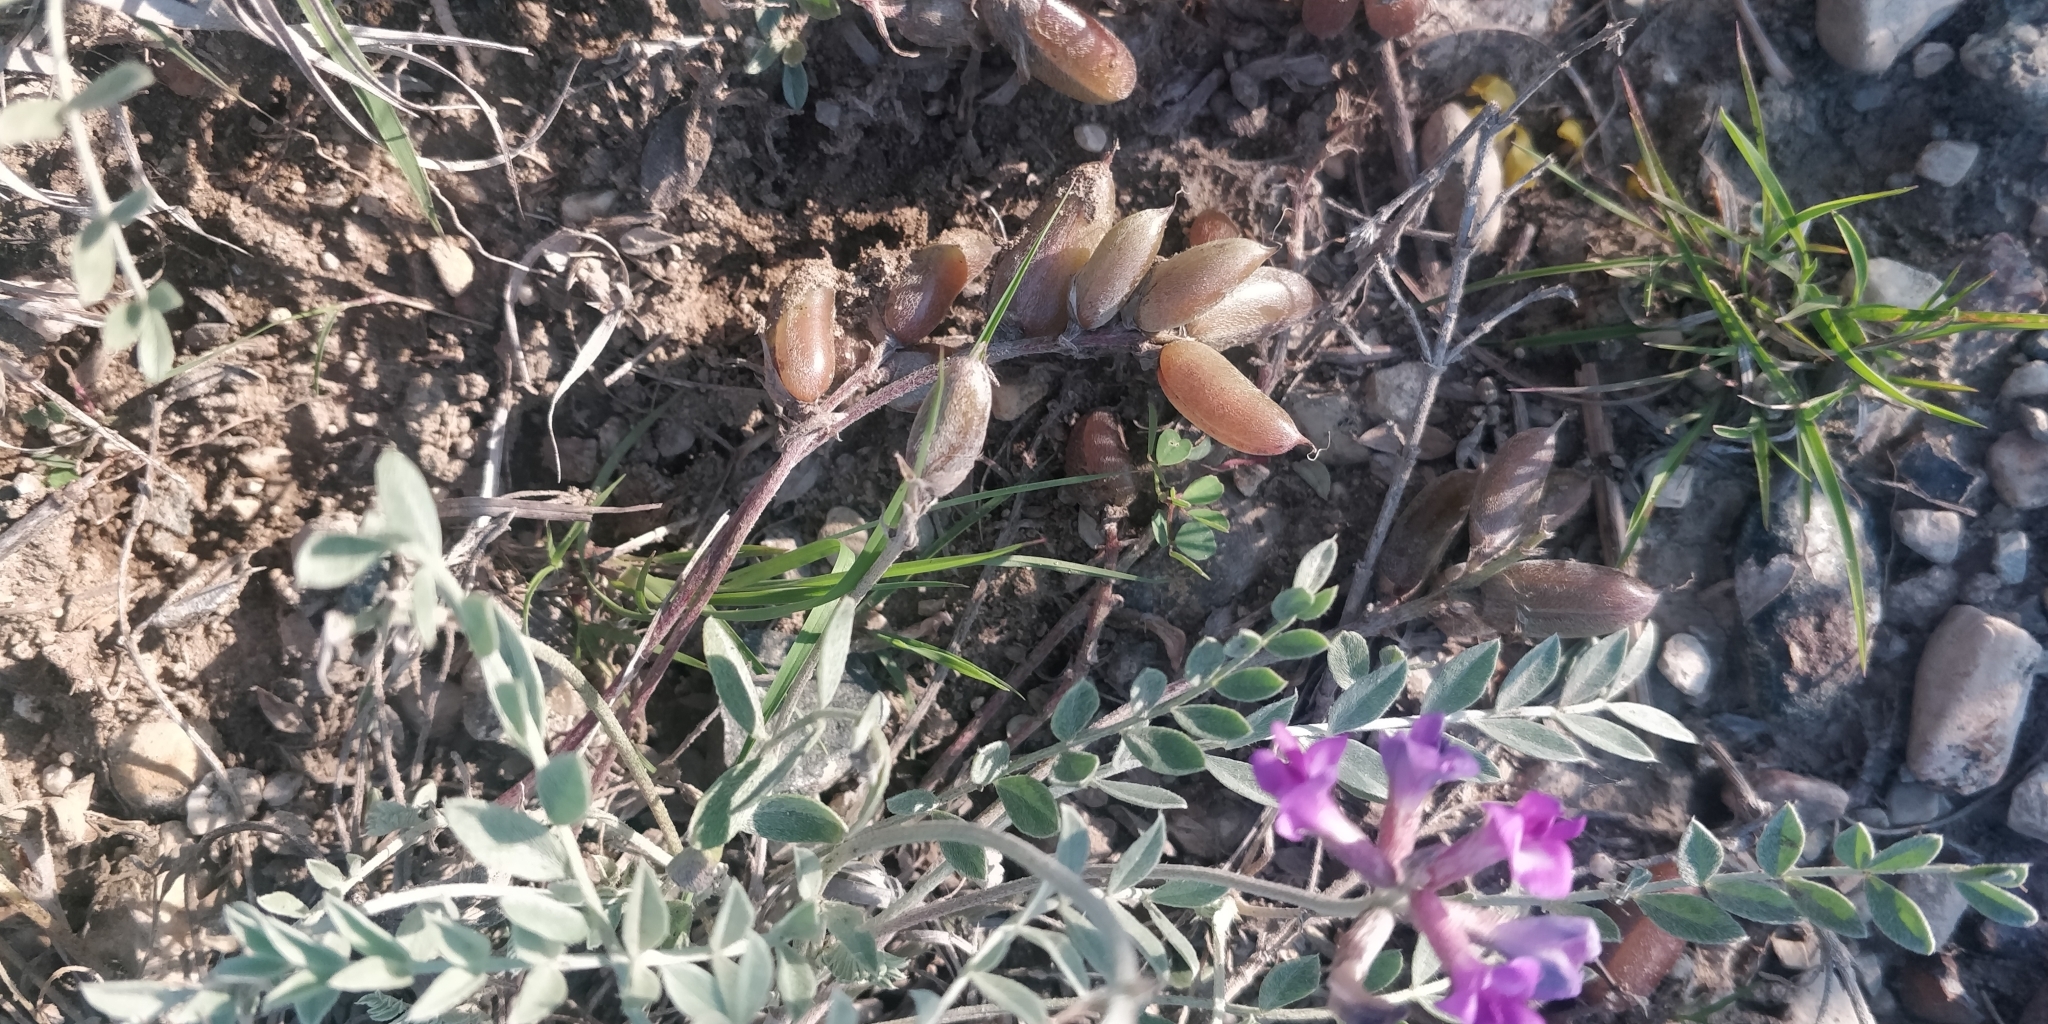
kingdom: Plantae
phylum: Tracheophyta
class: Magnoliopsida
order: Fabales
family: Fabaceae
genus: Astragalus
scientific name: Astragalus missouriensis
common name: Missouri milk-vetch
